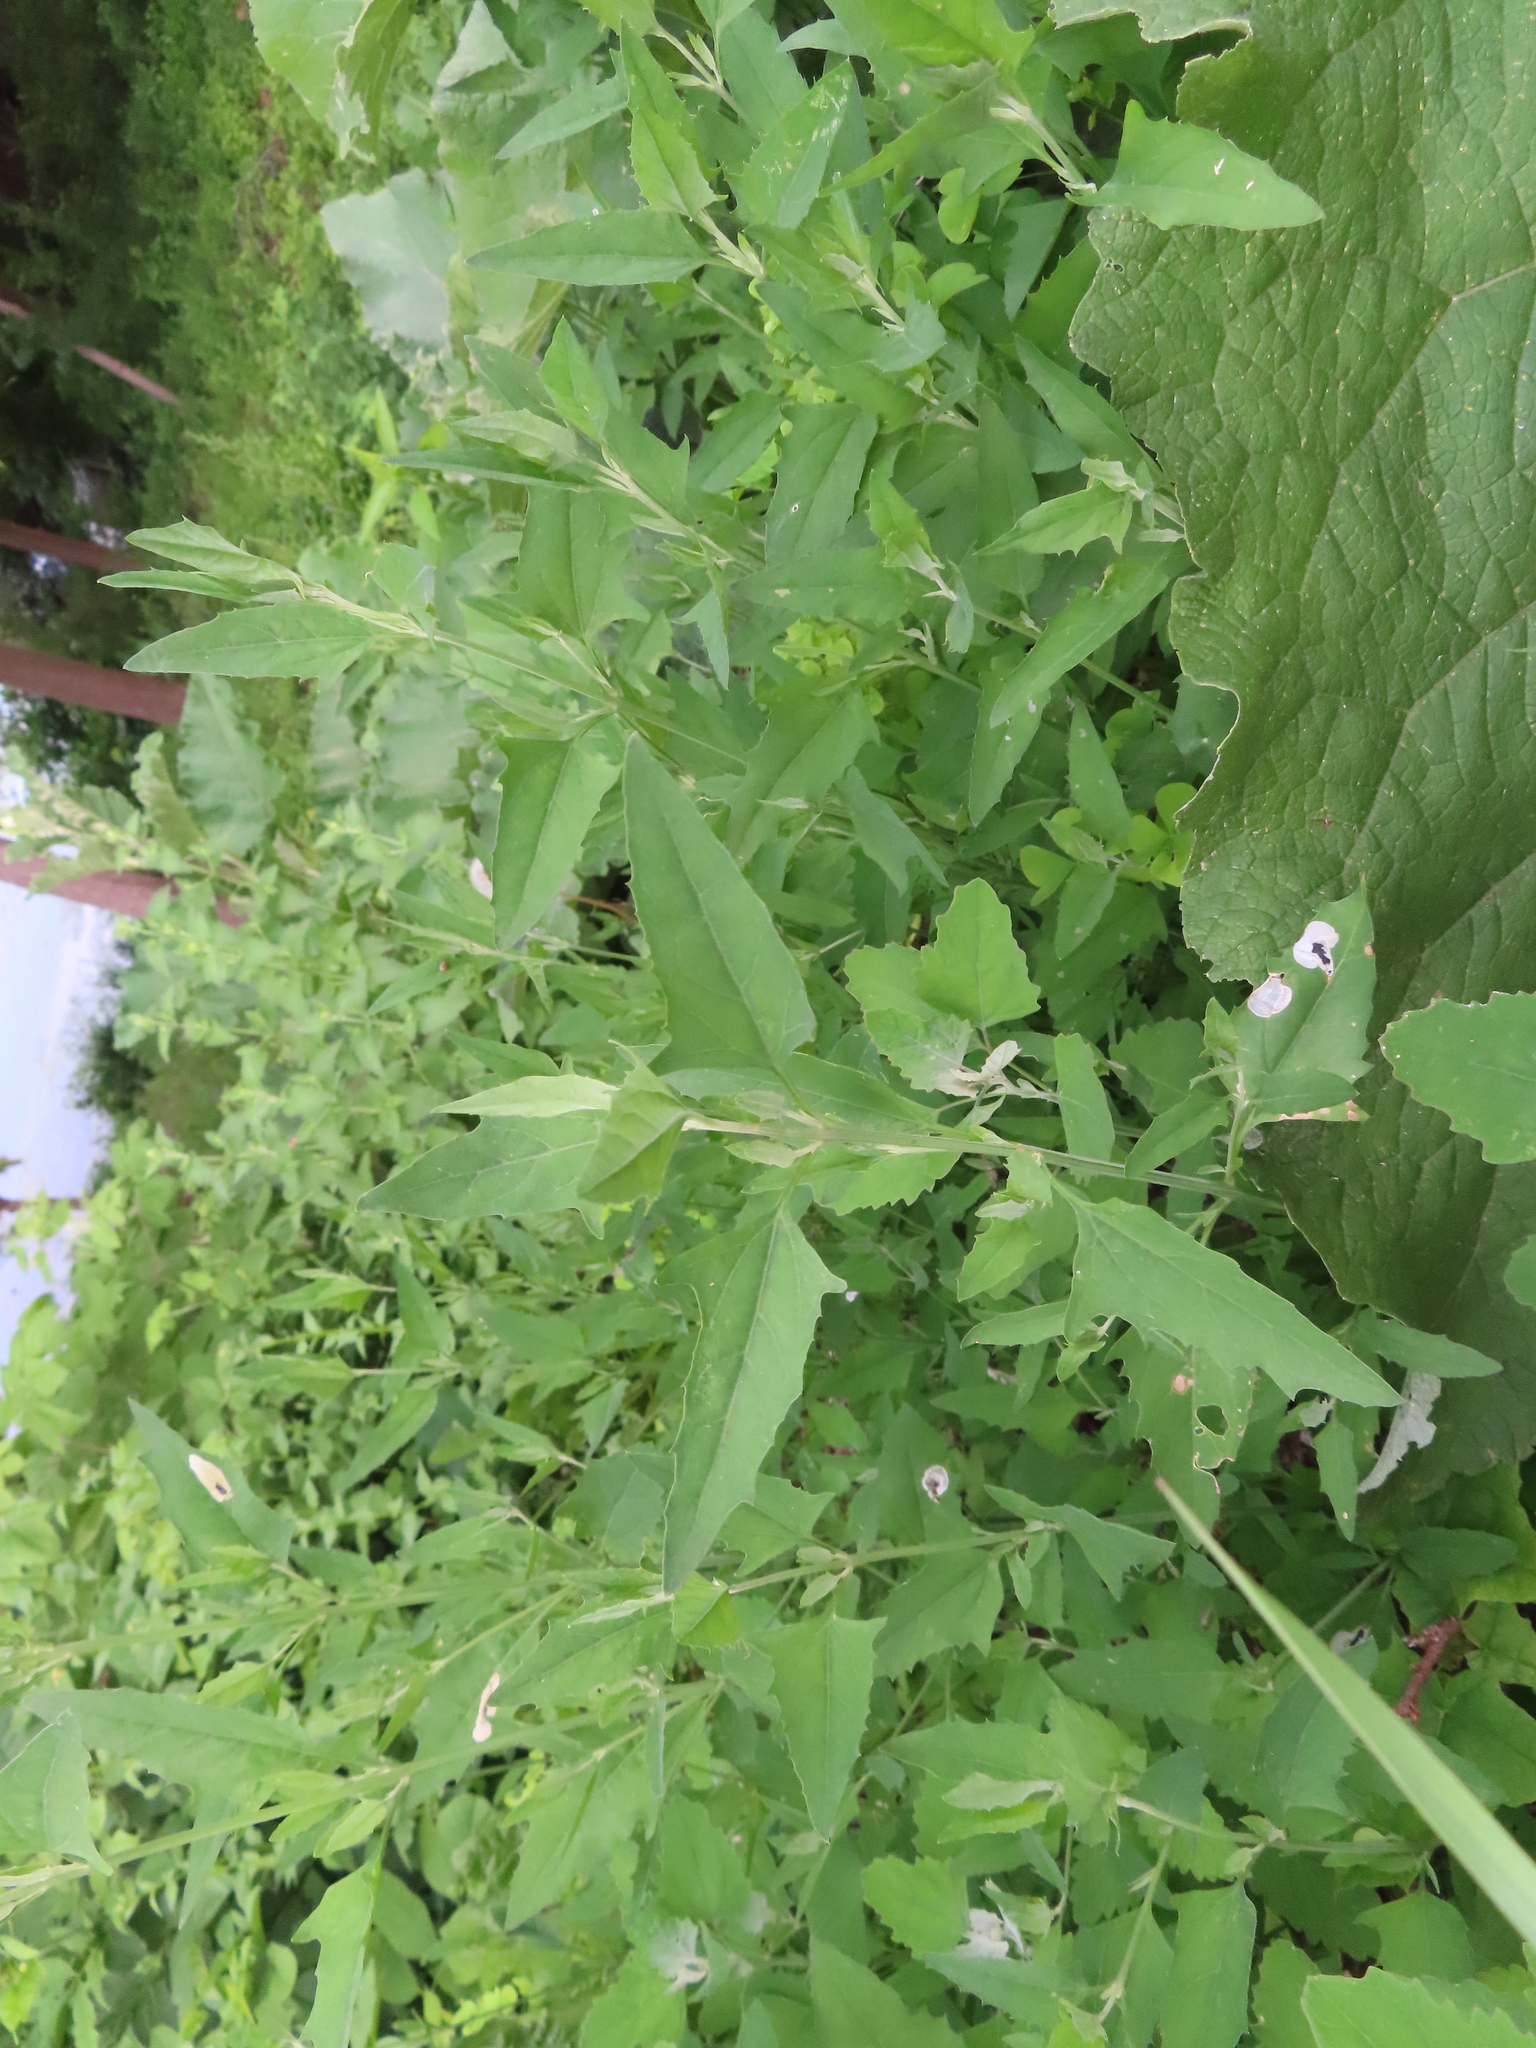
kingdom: Animalia
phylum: Arthropoda
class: Insecta
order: Lepidoptera
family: Gelechiidae
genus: Chrysoesthia
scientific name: Chrysoesthia sexguttella
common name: Moth
